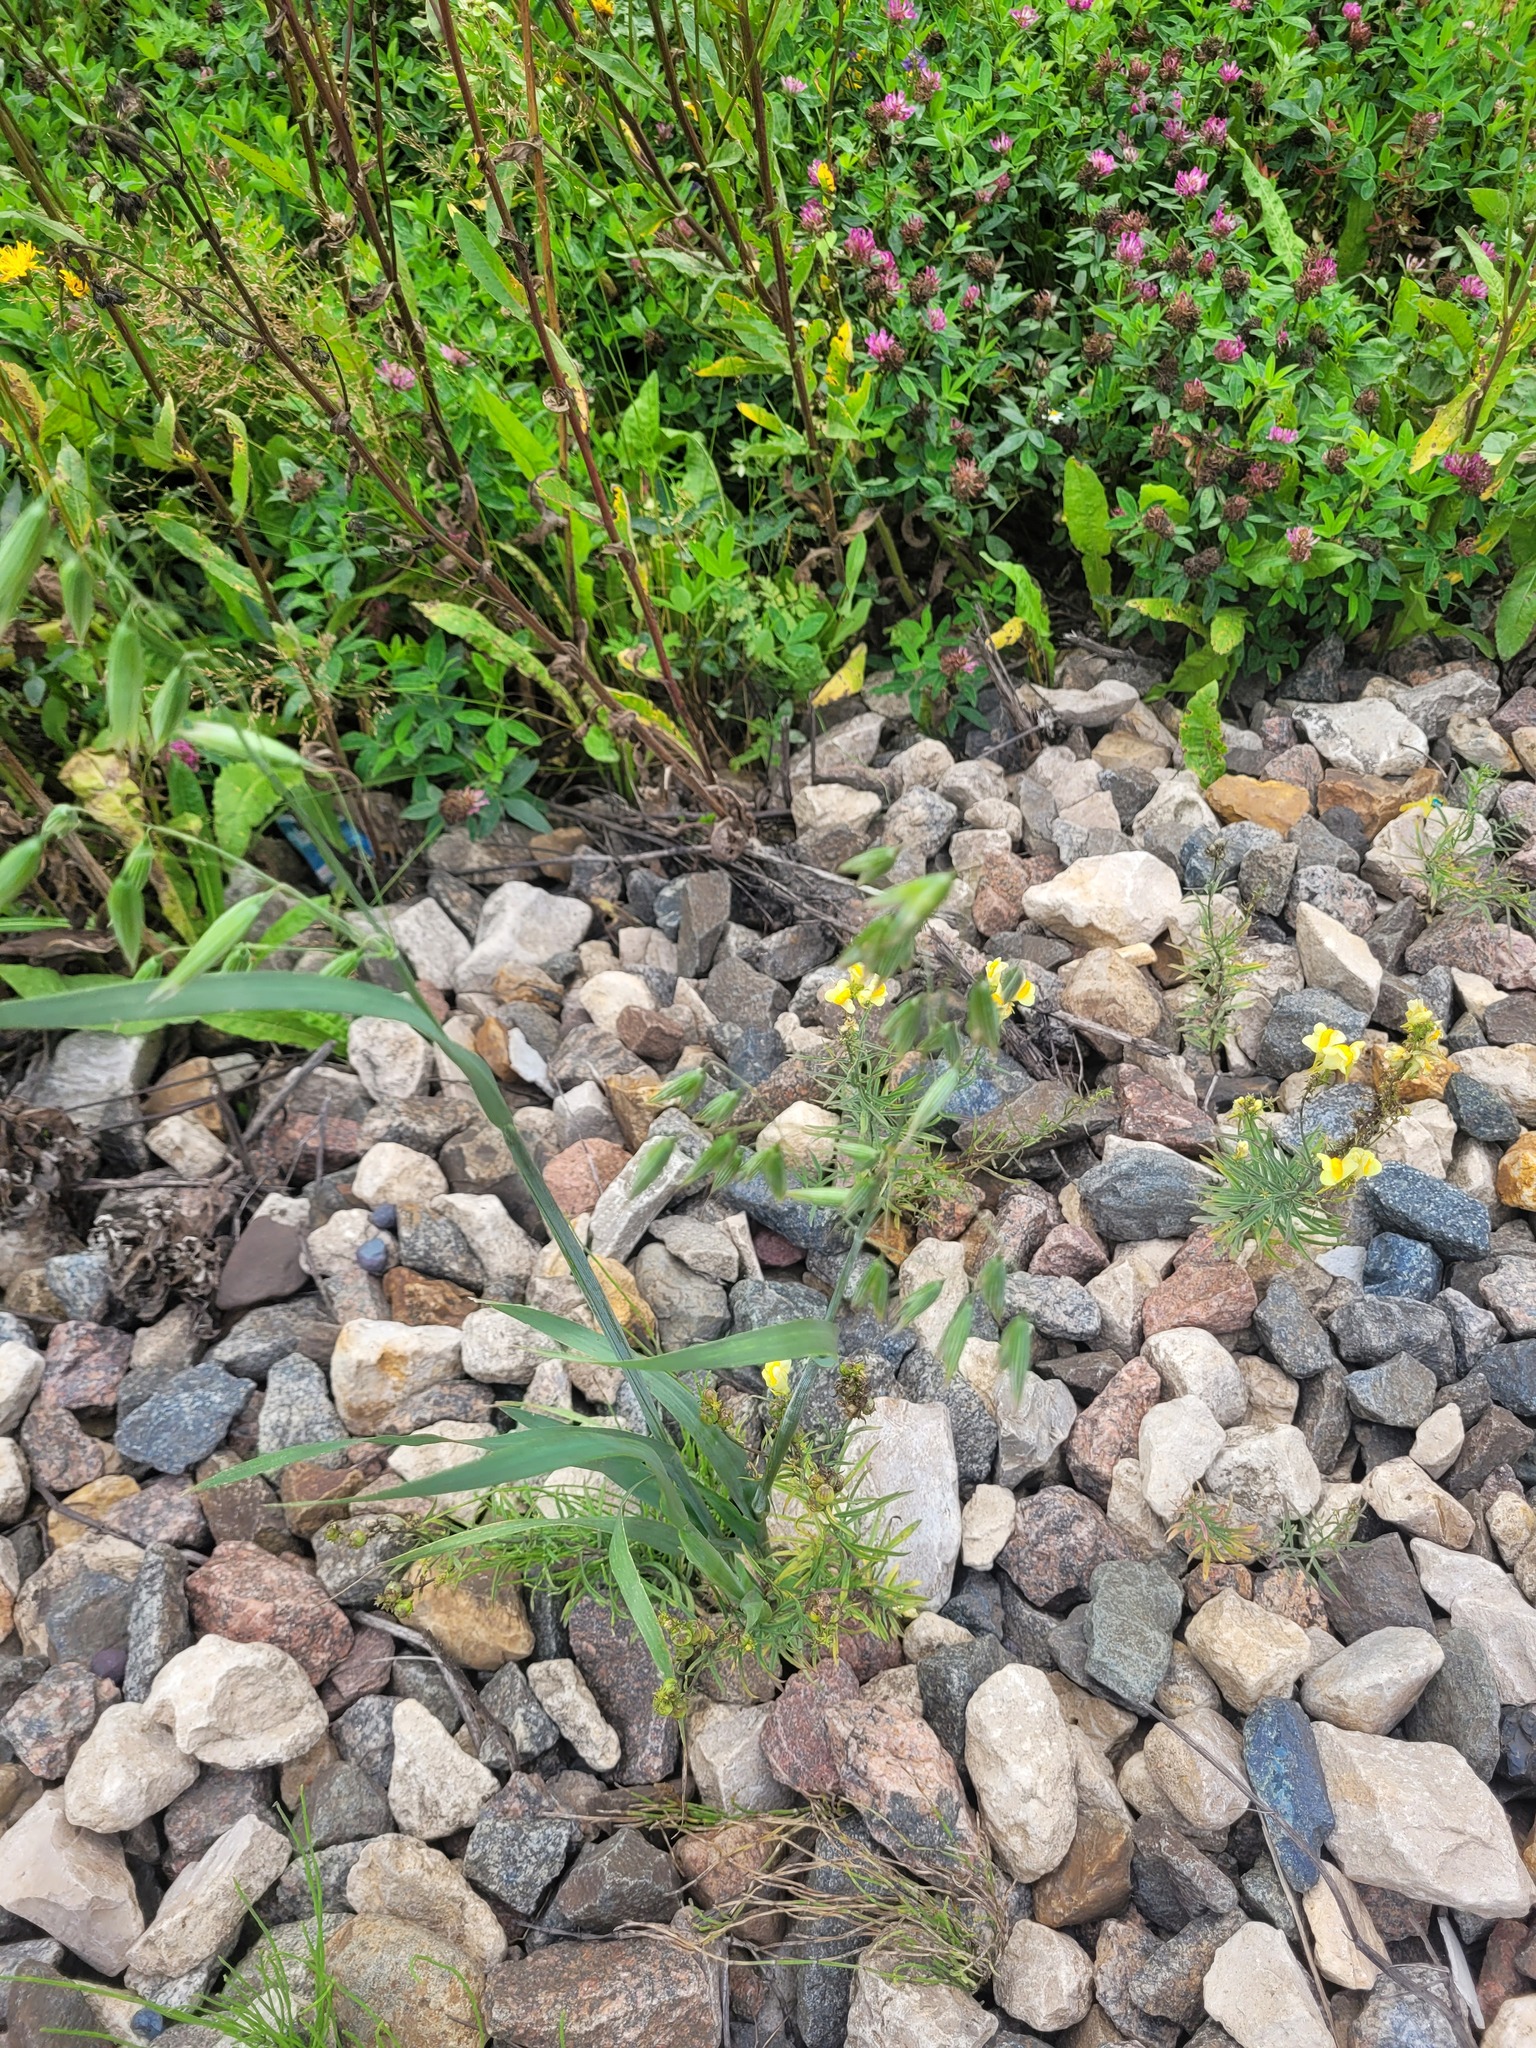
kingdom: Plantae
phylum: Tracheophyta
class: Liliopsida
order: Poales
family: Poaceae
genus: Avena
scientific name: Avena sativa
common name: Oat
